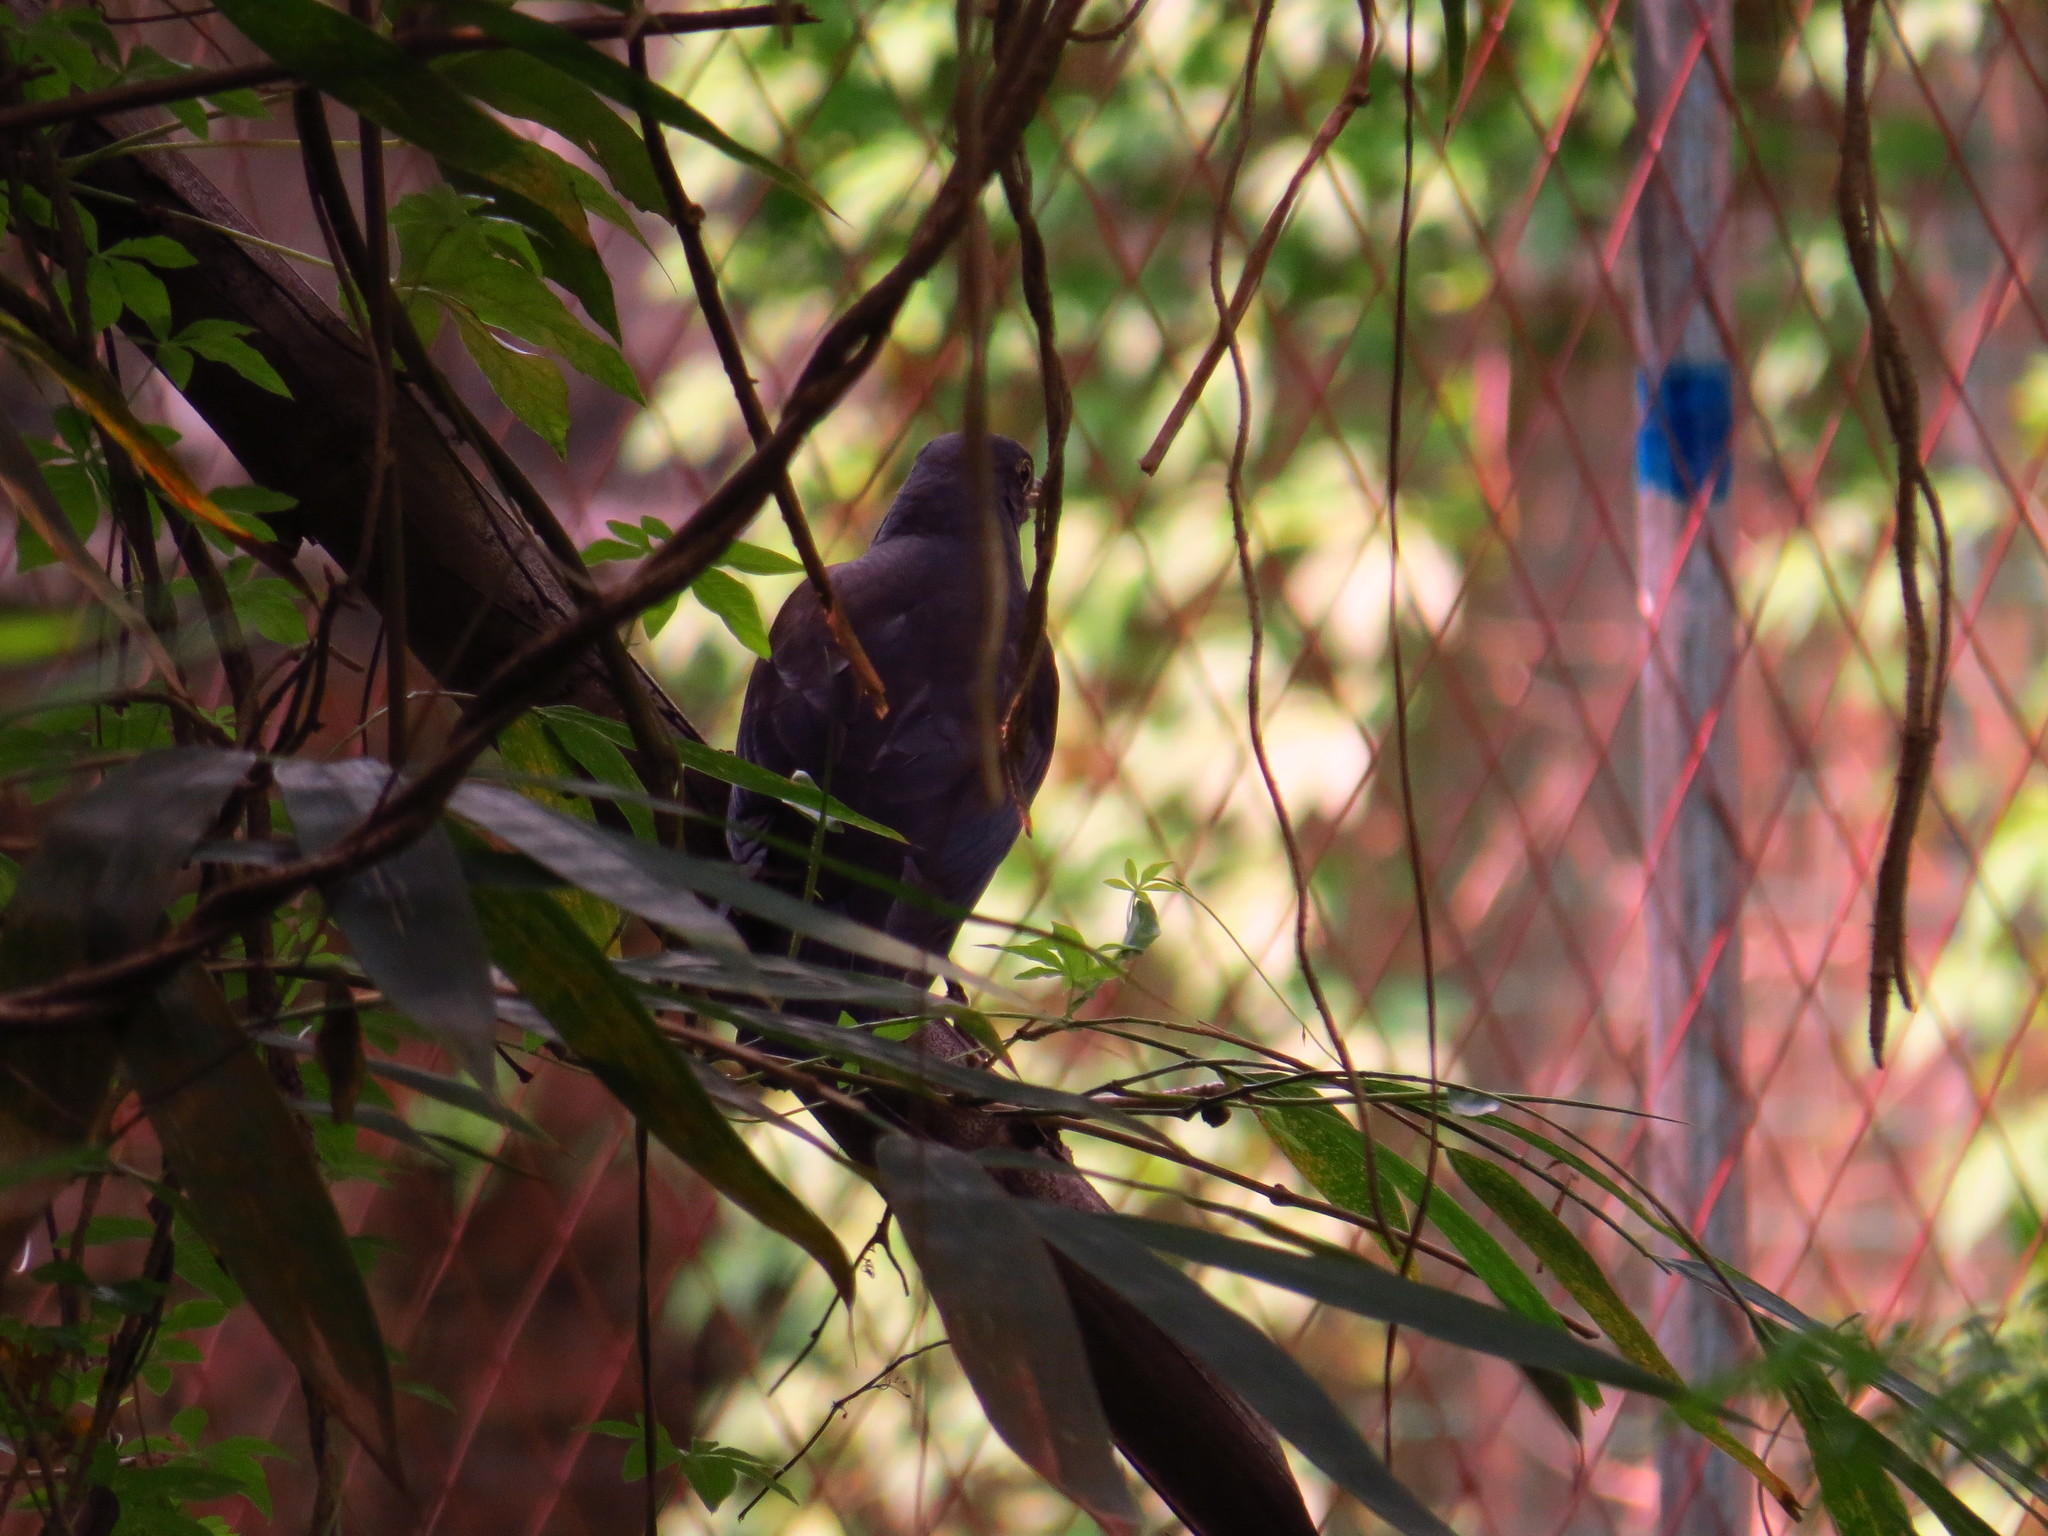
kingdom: Animalia
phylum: Chordata
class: Aves
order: Passeriformes
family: Turdidae
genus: Turdus
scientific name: Turdus mandarinus
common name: Chinese blackbird
